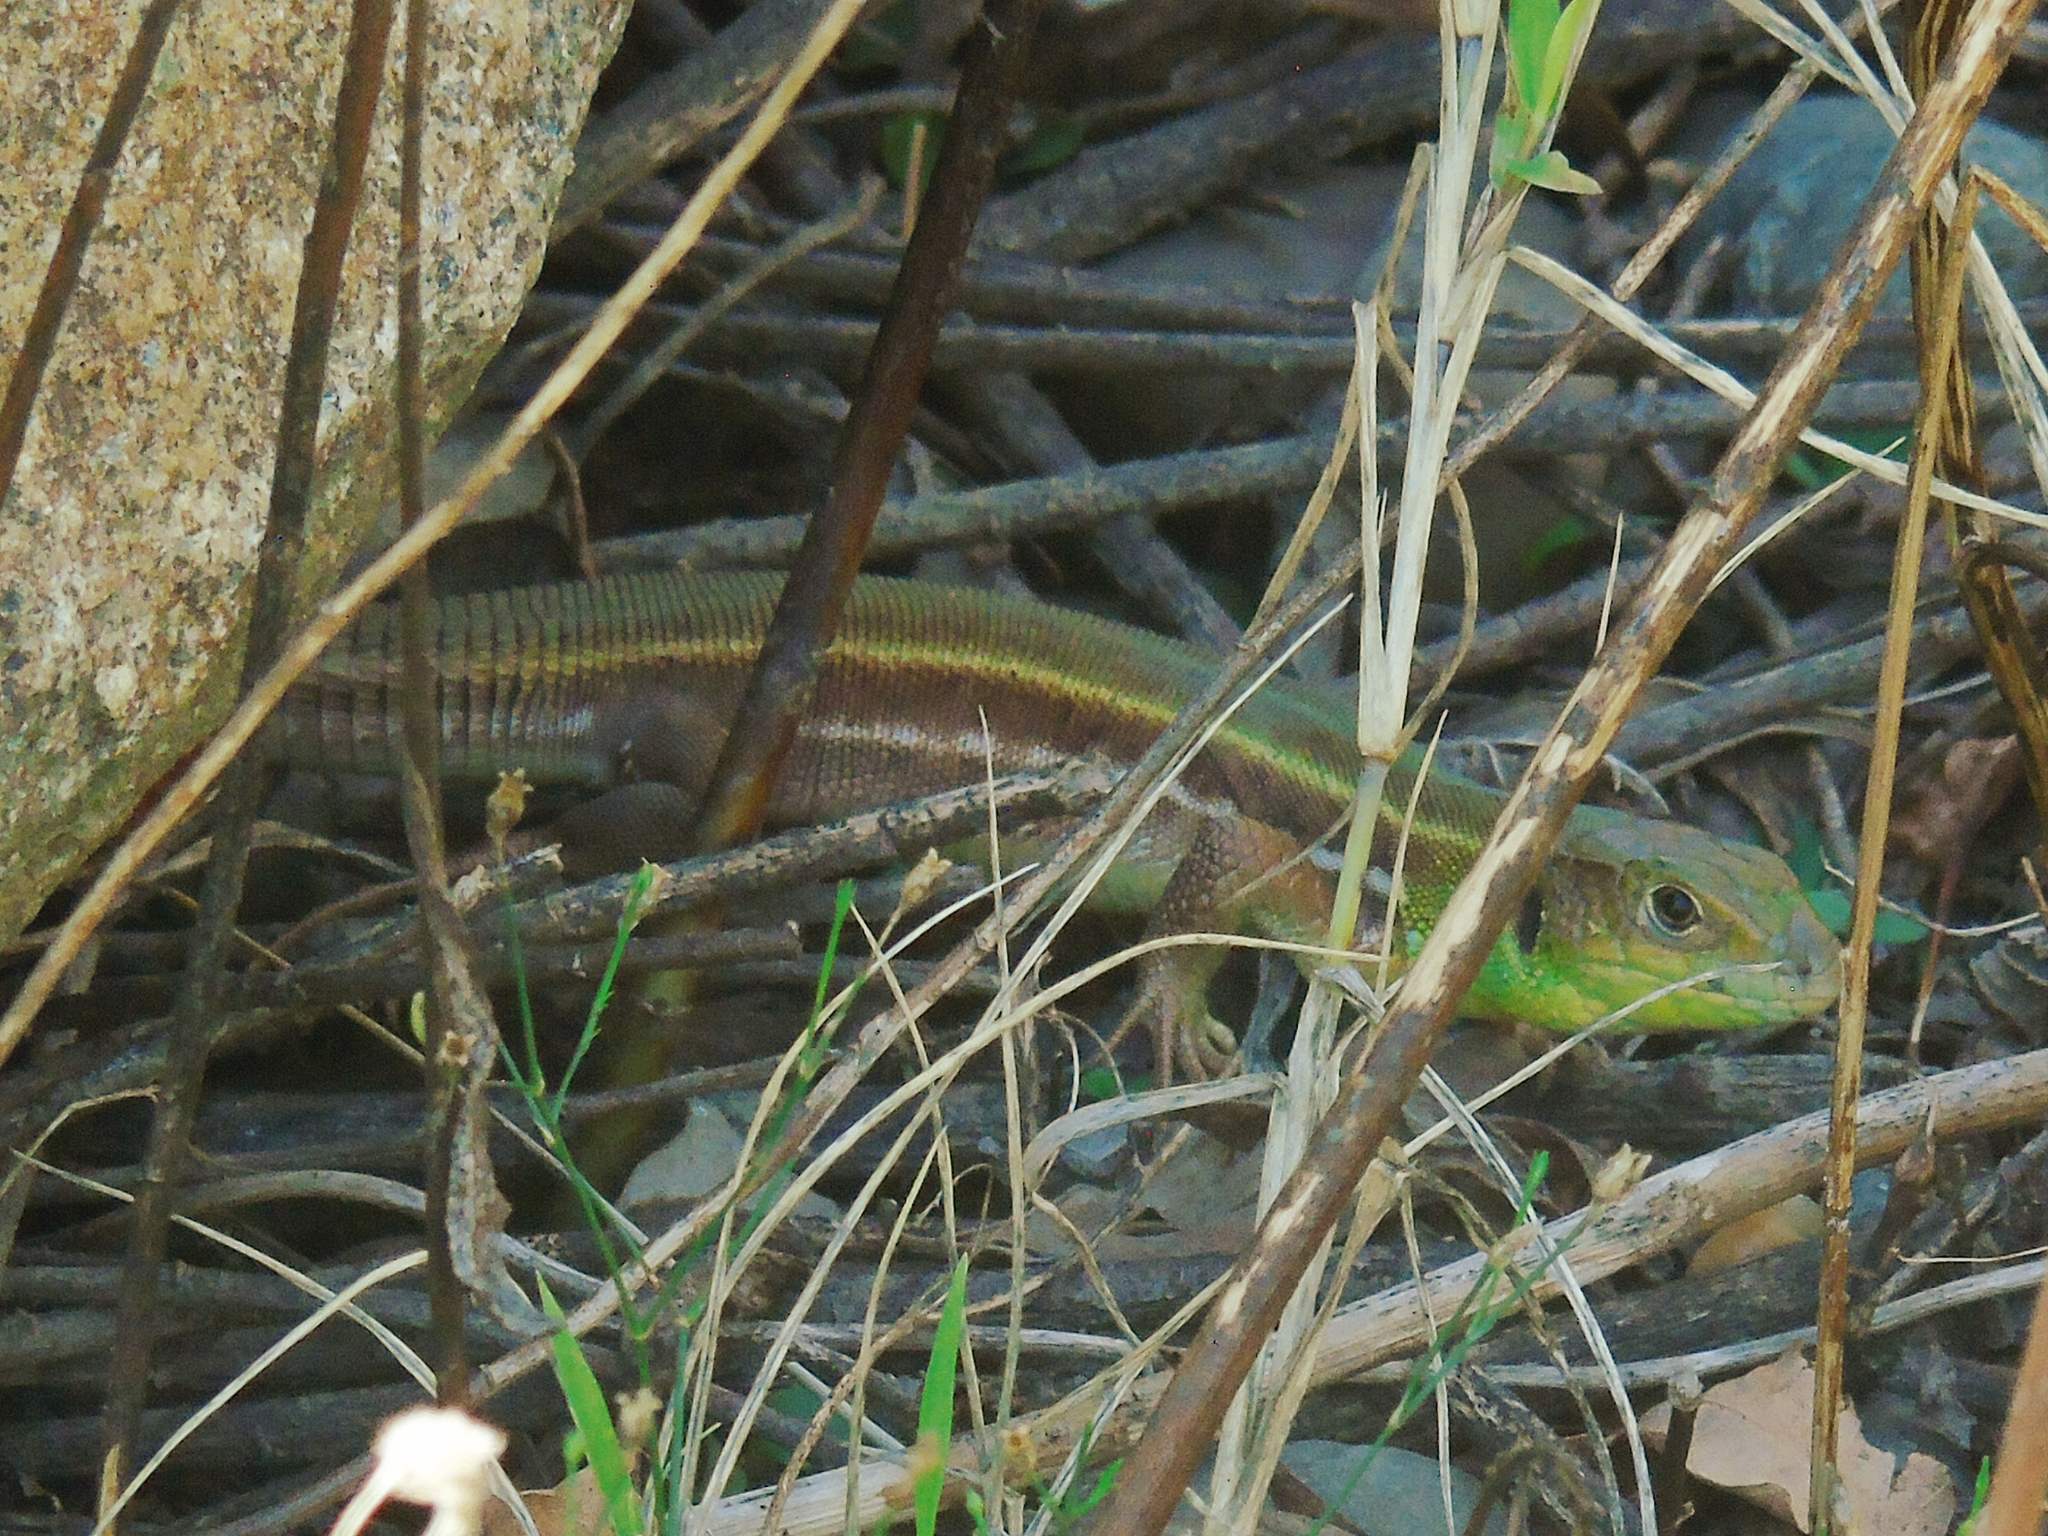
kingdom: Animalia
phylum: Chordata
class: Squamata
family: Lacertidae
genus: Lacerta
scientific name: Lacerta media
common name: Medium lizard
